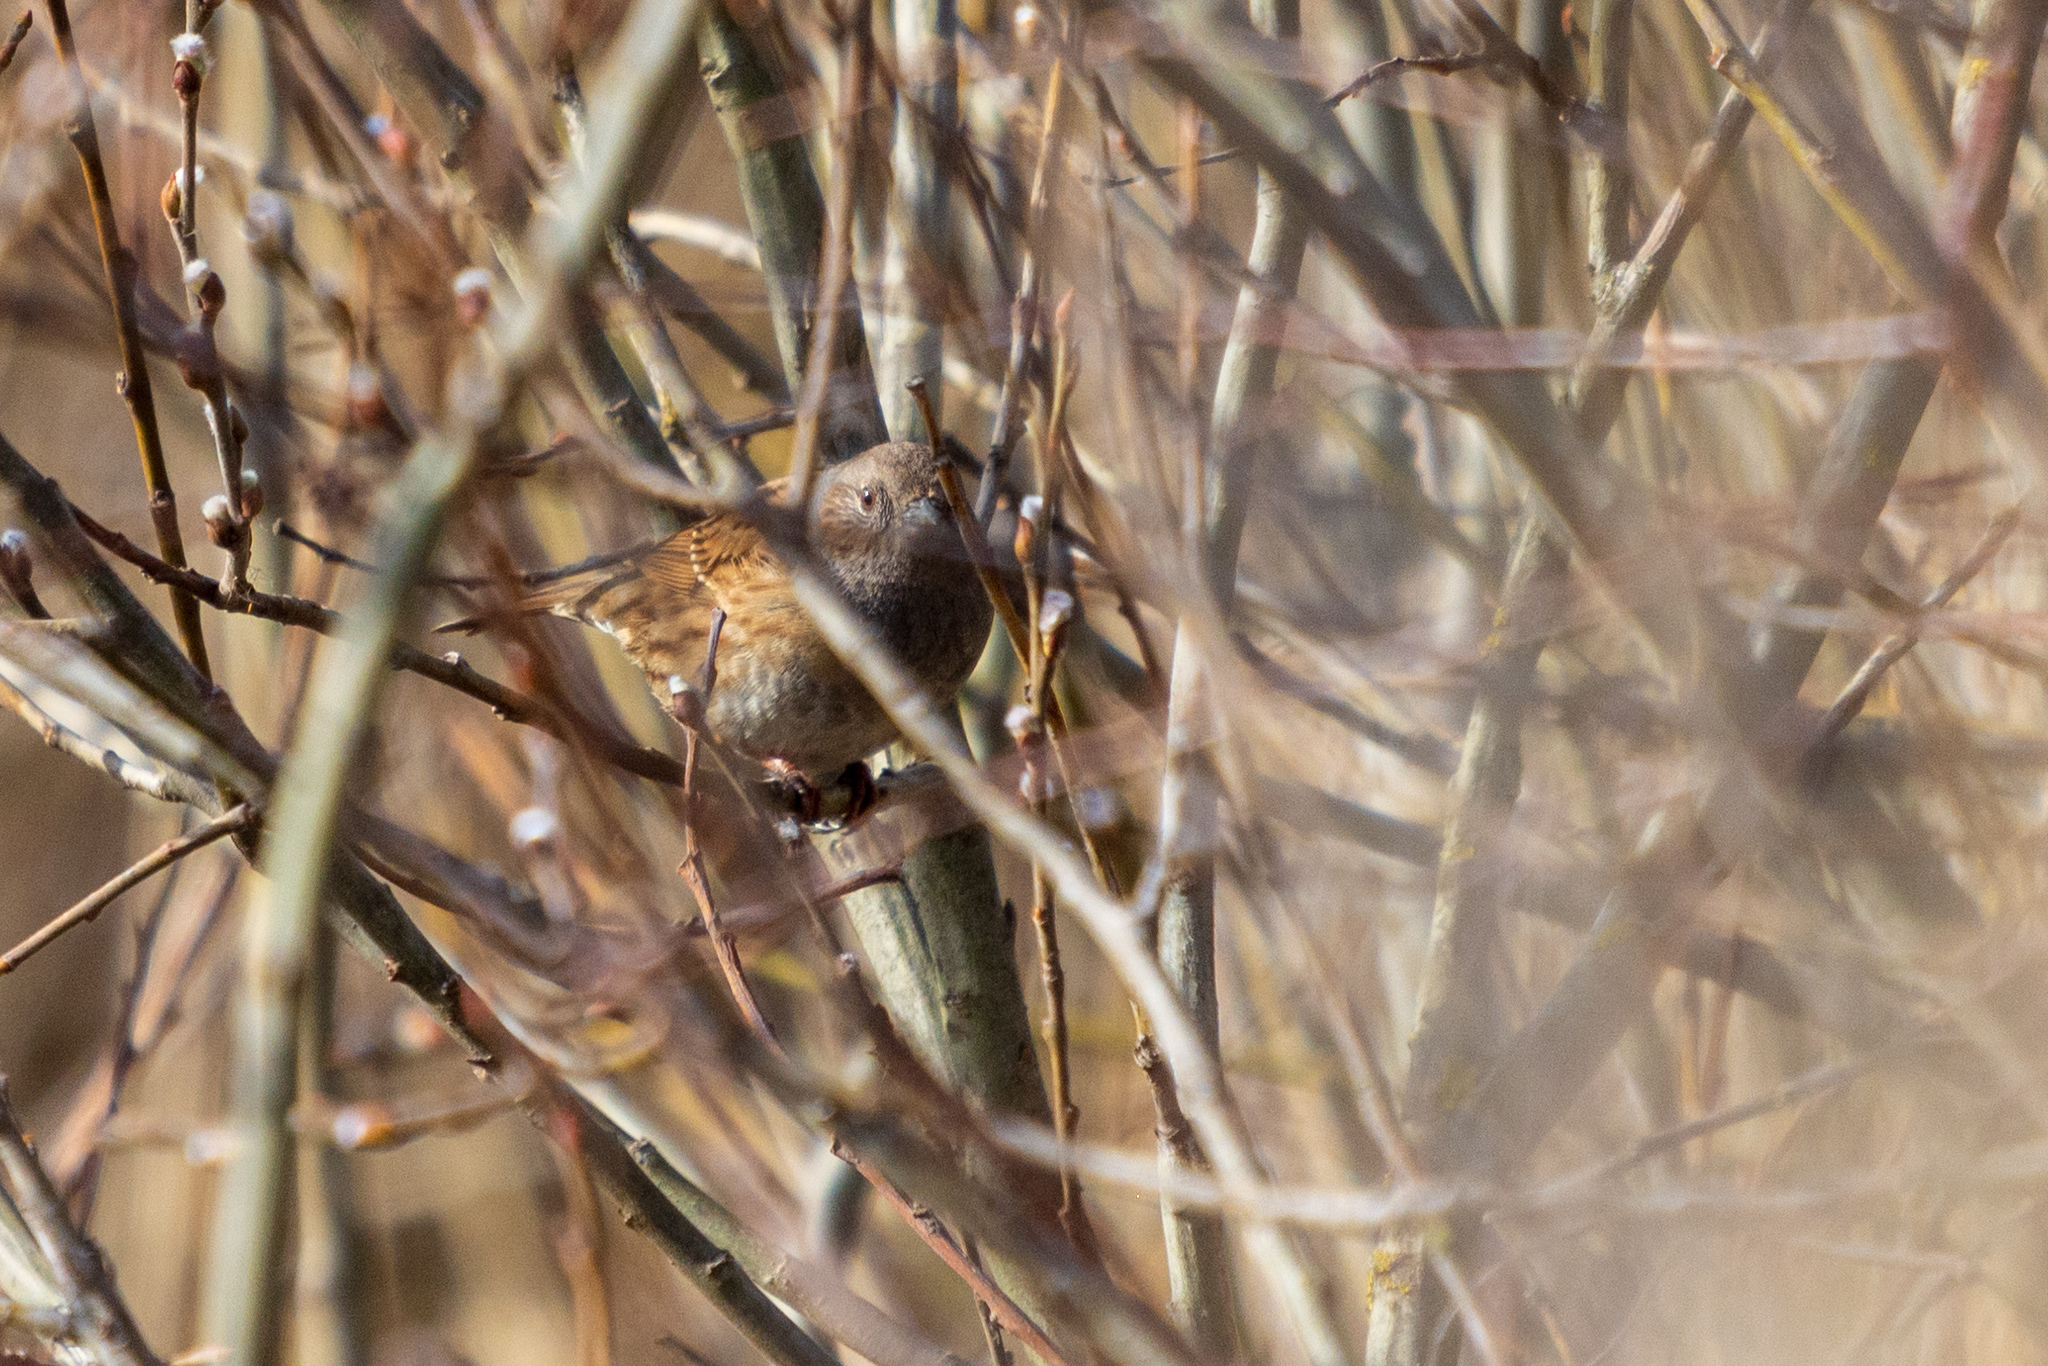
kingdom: Animalia
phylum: Chordata
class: Aves
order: Passeriformes
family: Prunellidae
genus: Prunella
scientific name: Prunella modularis
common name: Dunnock
